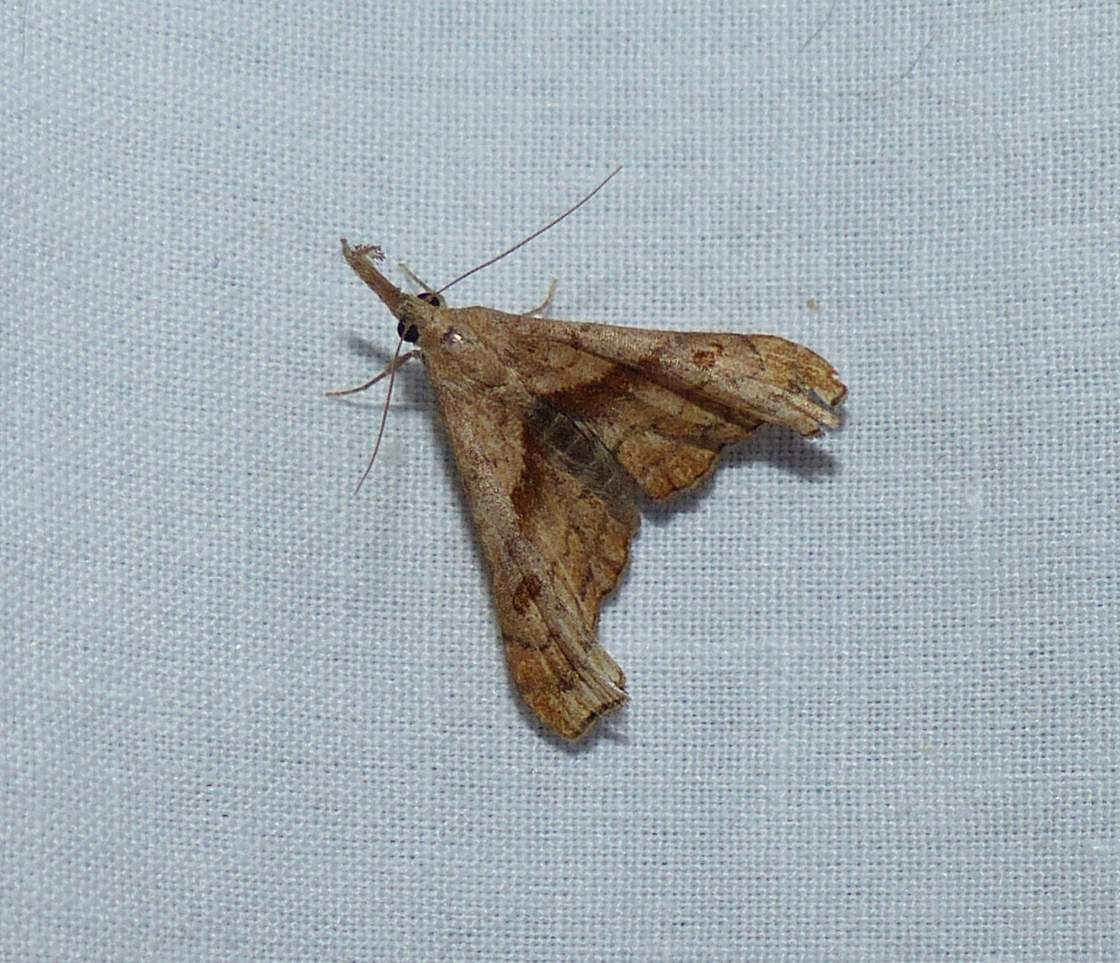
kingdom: Animalia
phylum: Arthropoda
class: Insecta
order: Lepidoptera
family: Erebidae
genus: Palthis
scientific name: Palthis angulalis
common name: Dark-spotted palthis moth
